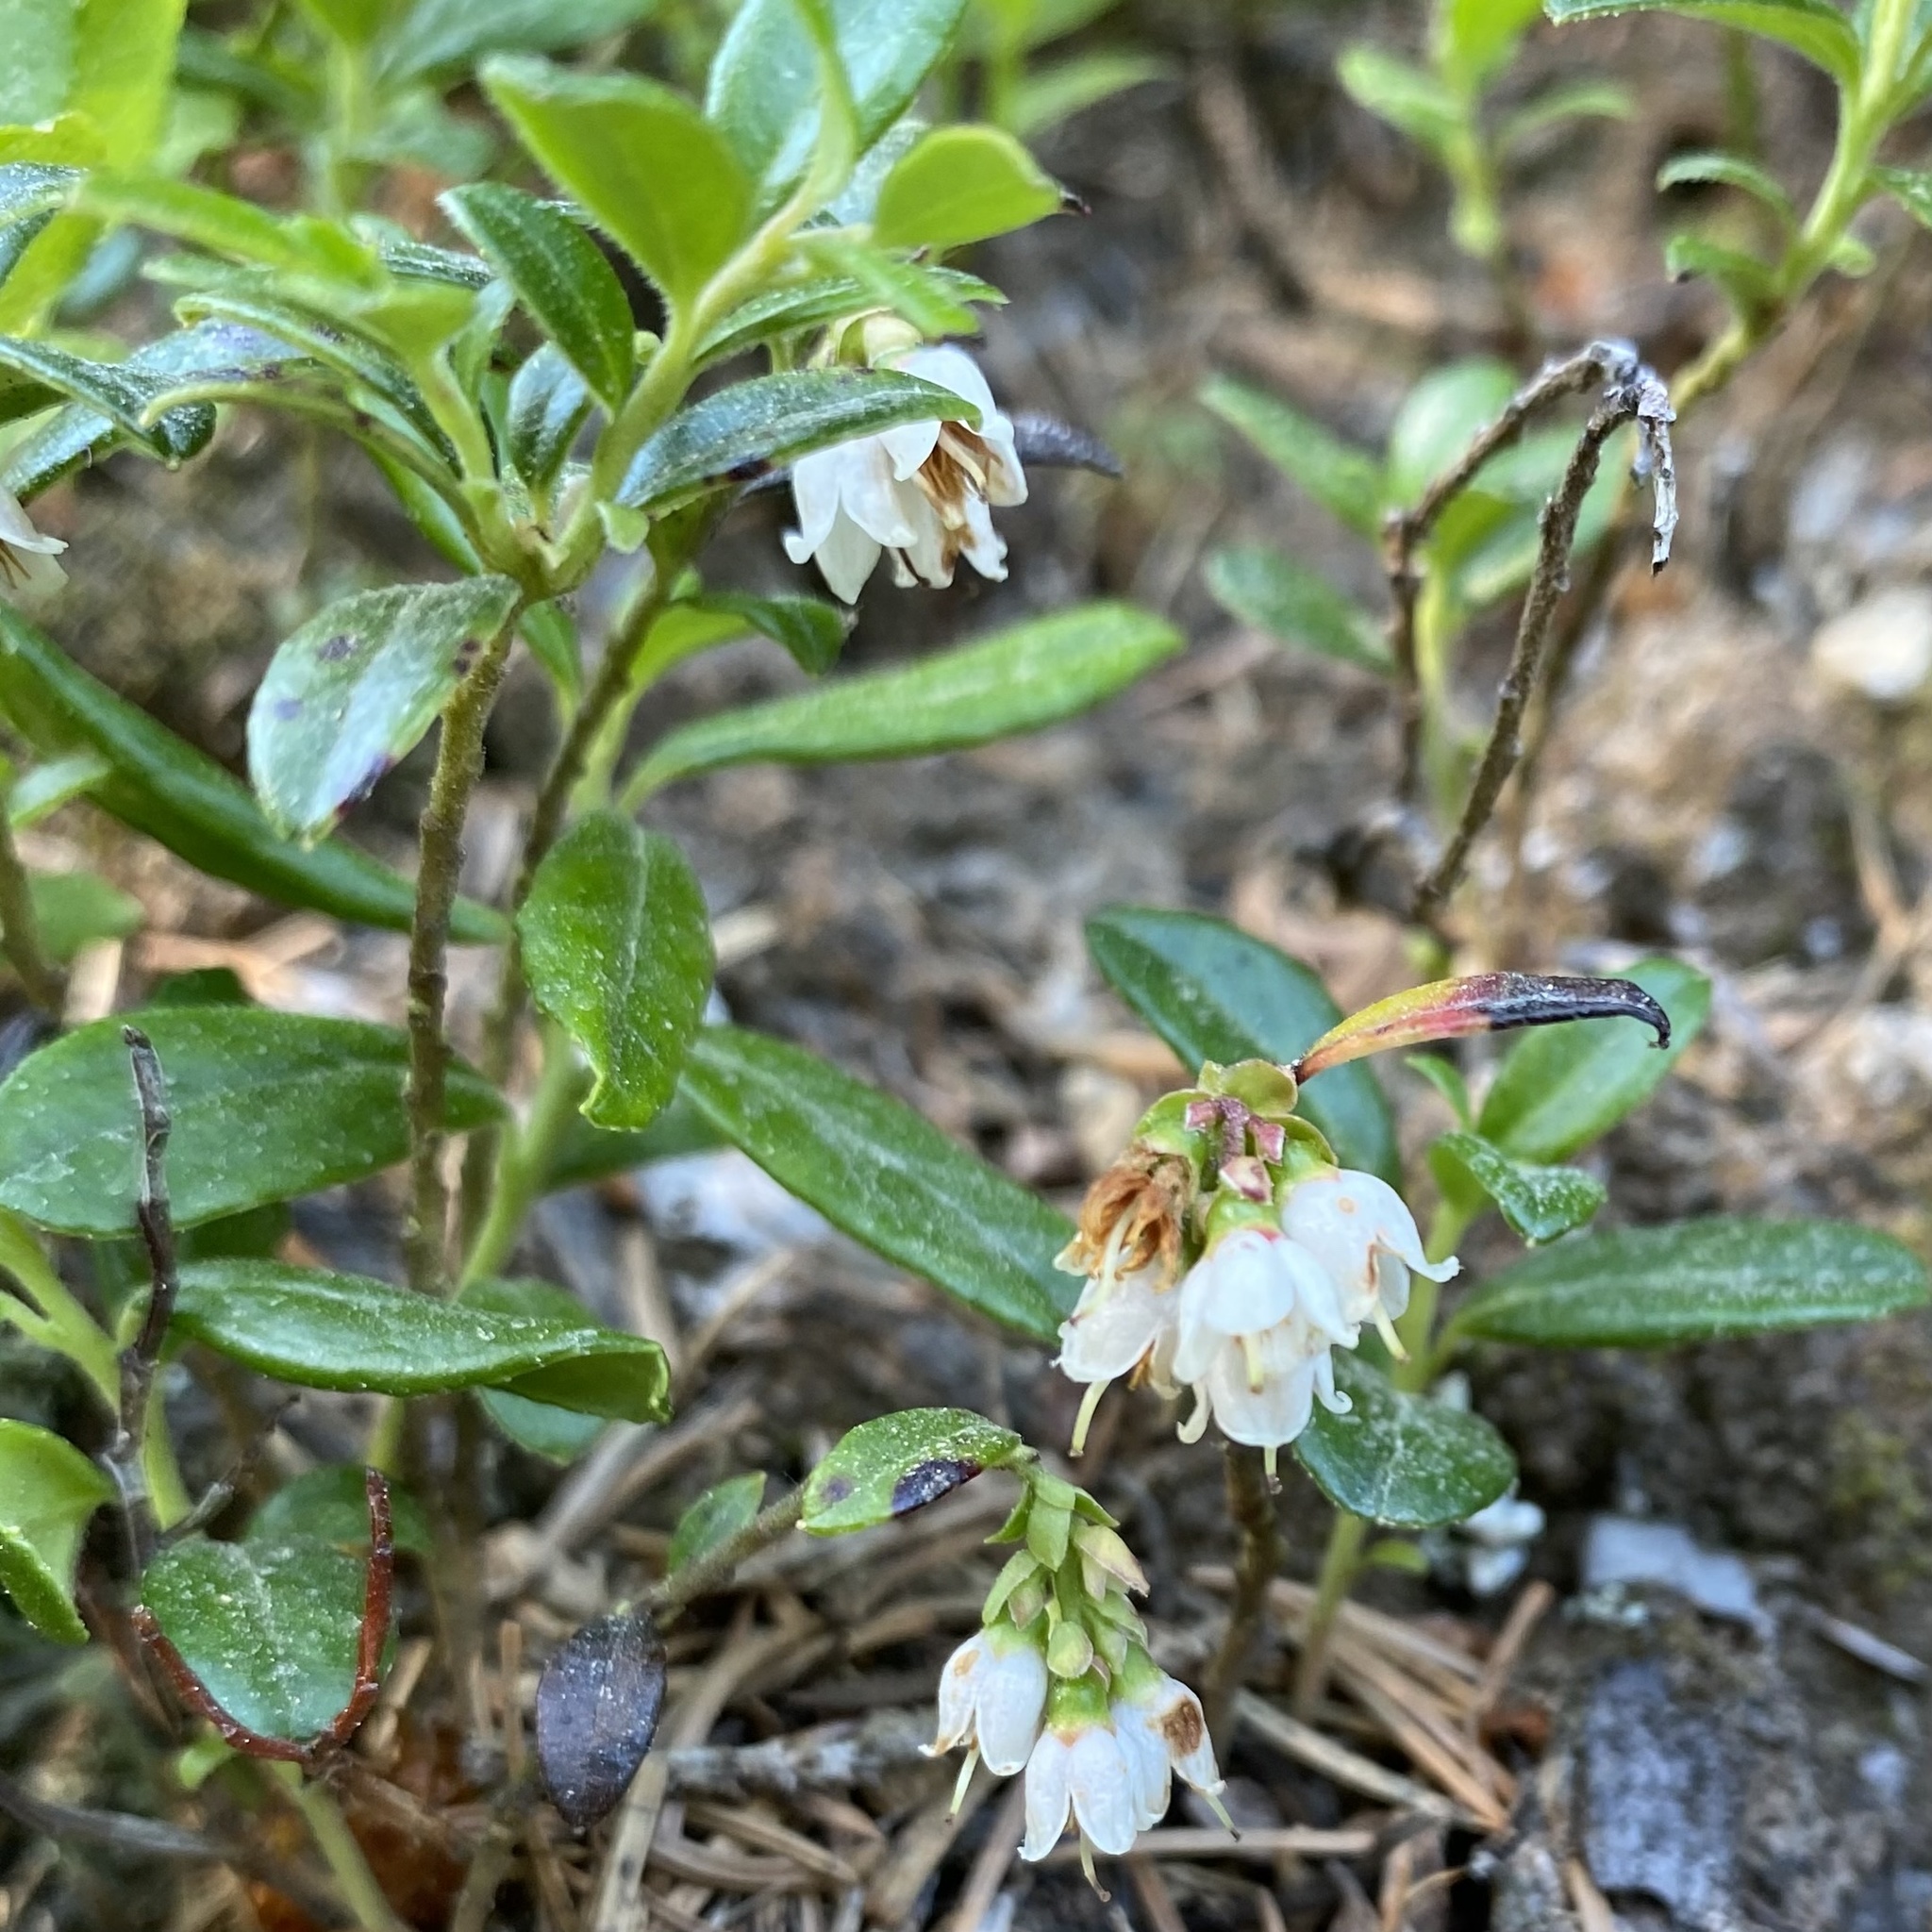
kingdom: Plantae
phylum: Tracheophyta
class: Magnoliopsida
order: Ericales
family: Ericaceae
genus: Vaccinium
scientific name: Vaccinium vitis-idaea
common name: Cowberry
